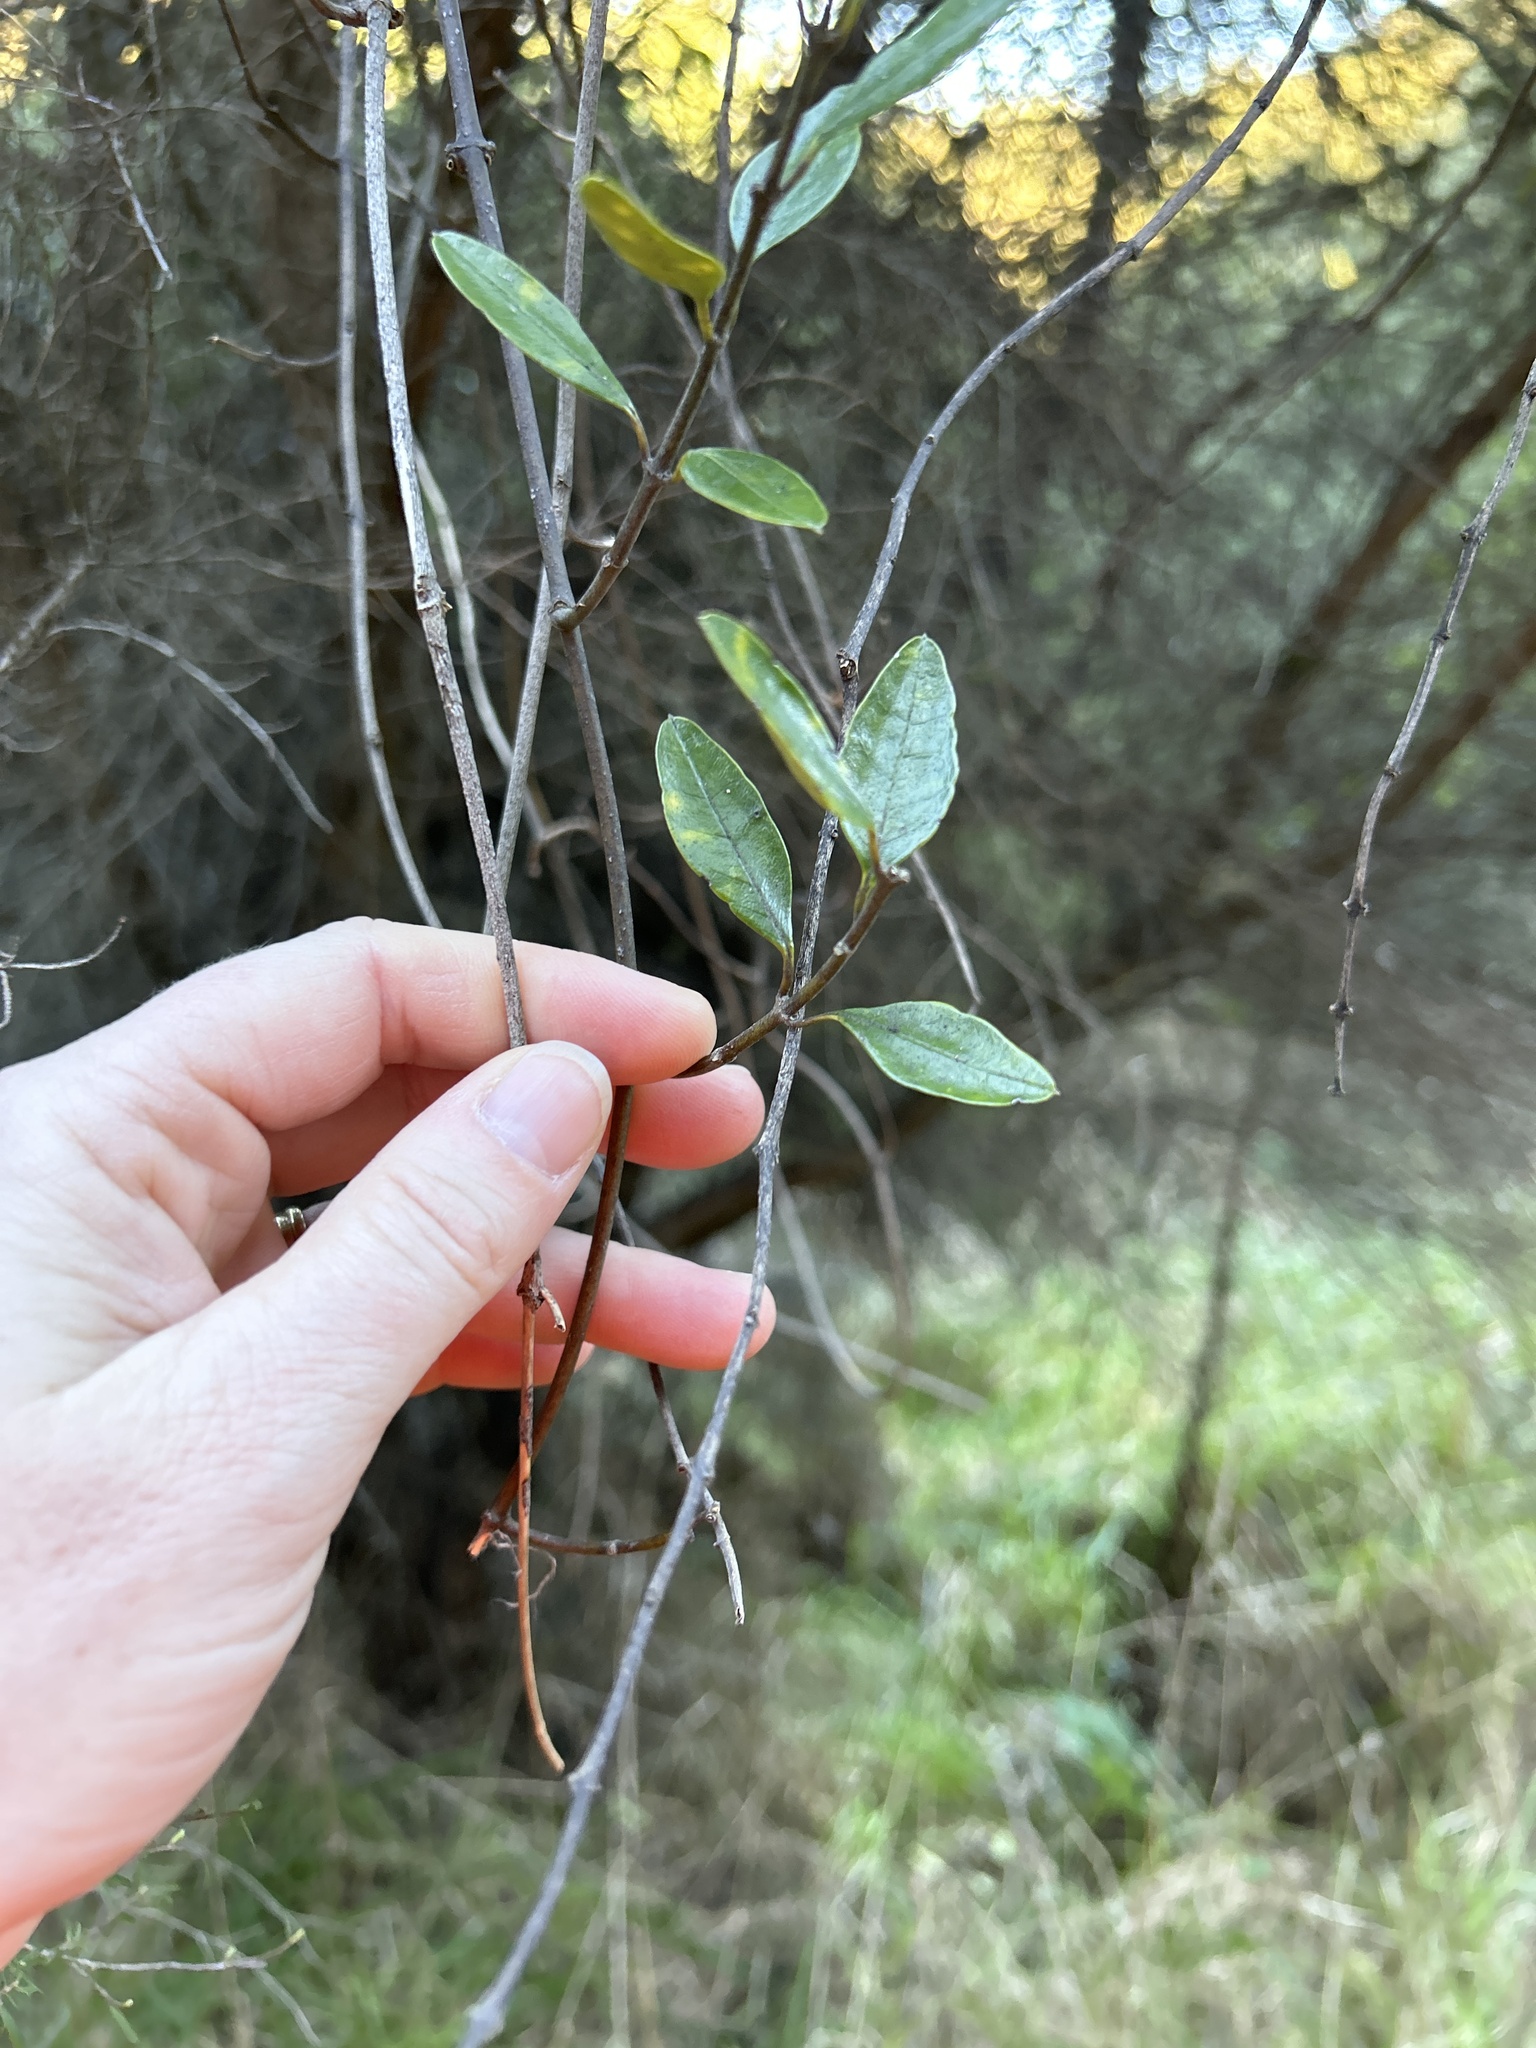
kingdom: Plantae
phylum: Tracheophyta
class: Magnoliopsida
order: Gentianales
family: Apocynaceae
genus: Parsonsia
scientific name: Parsonsia heterophylla
